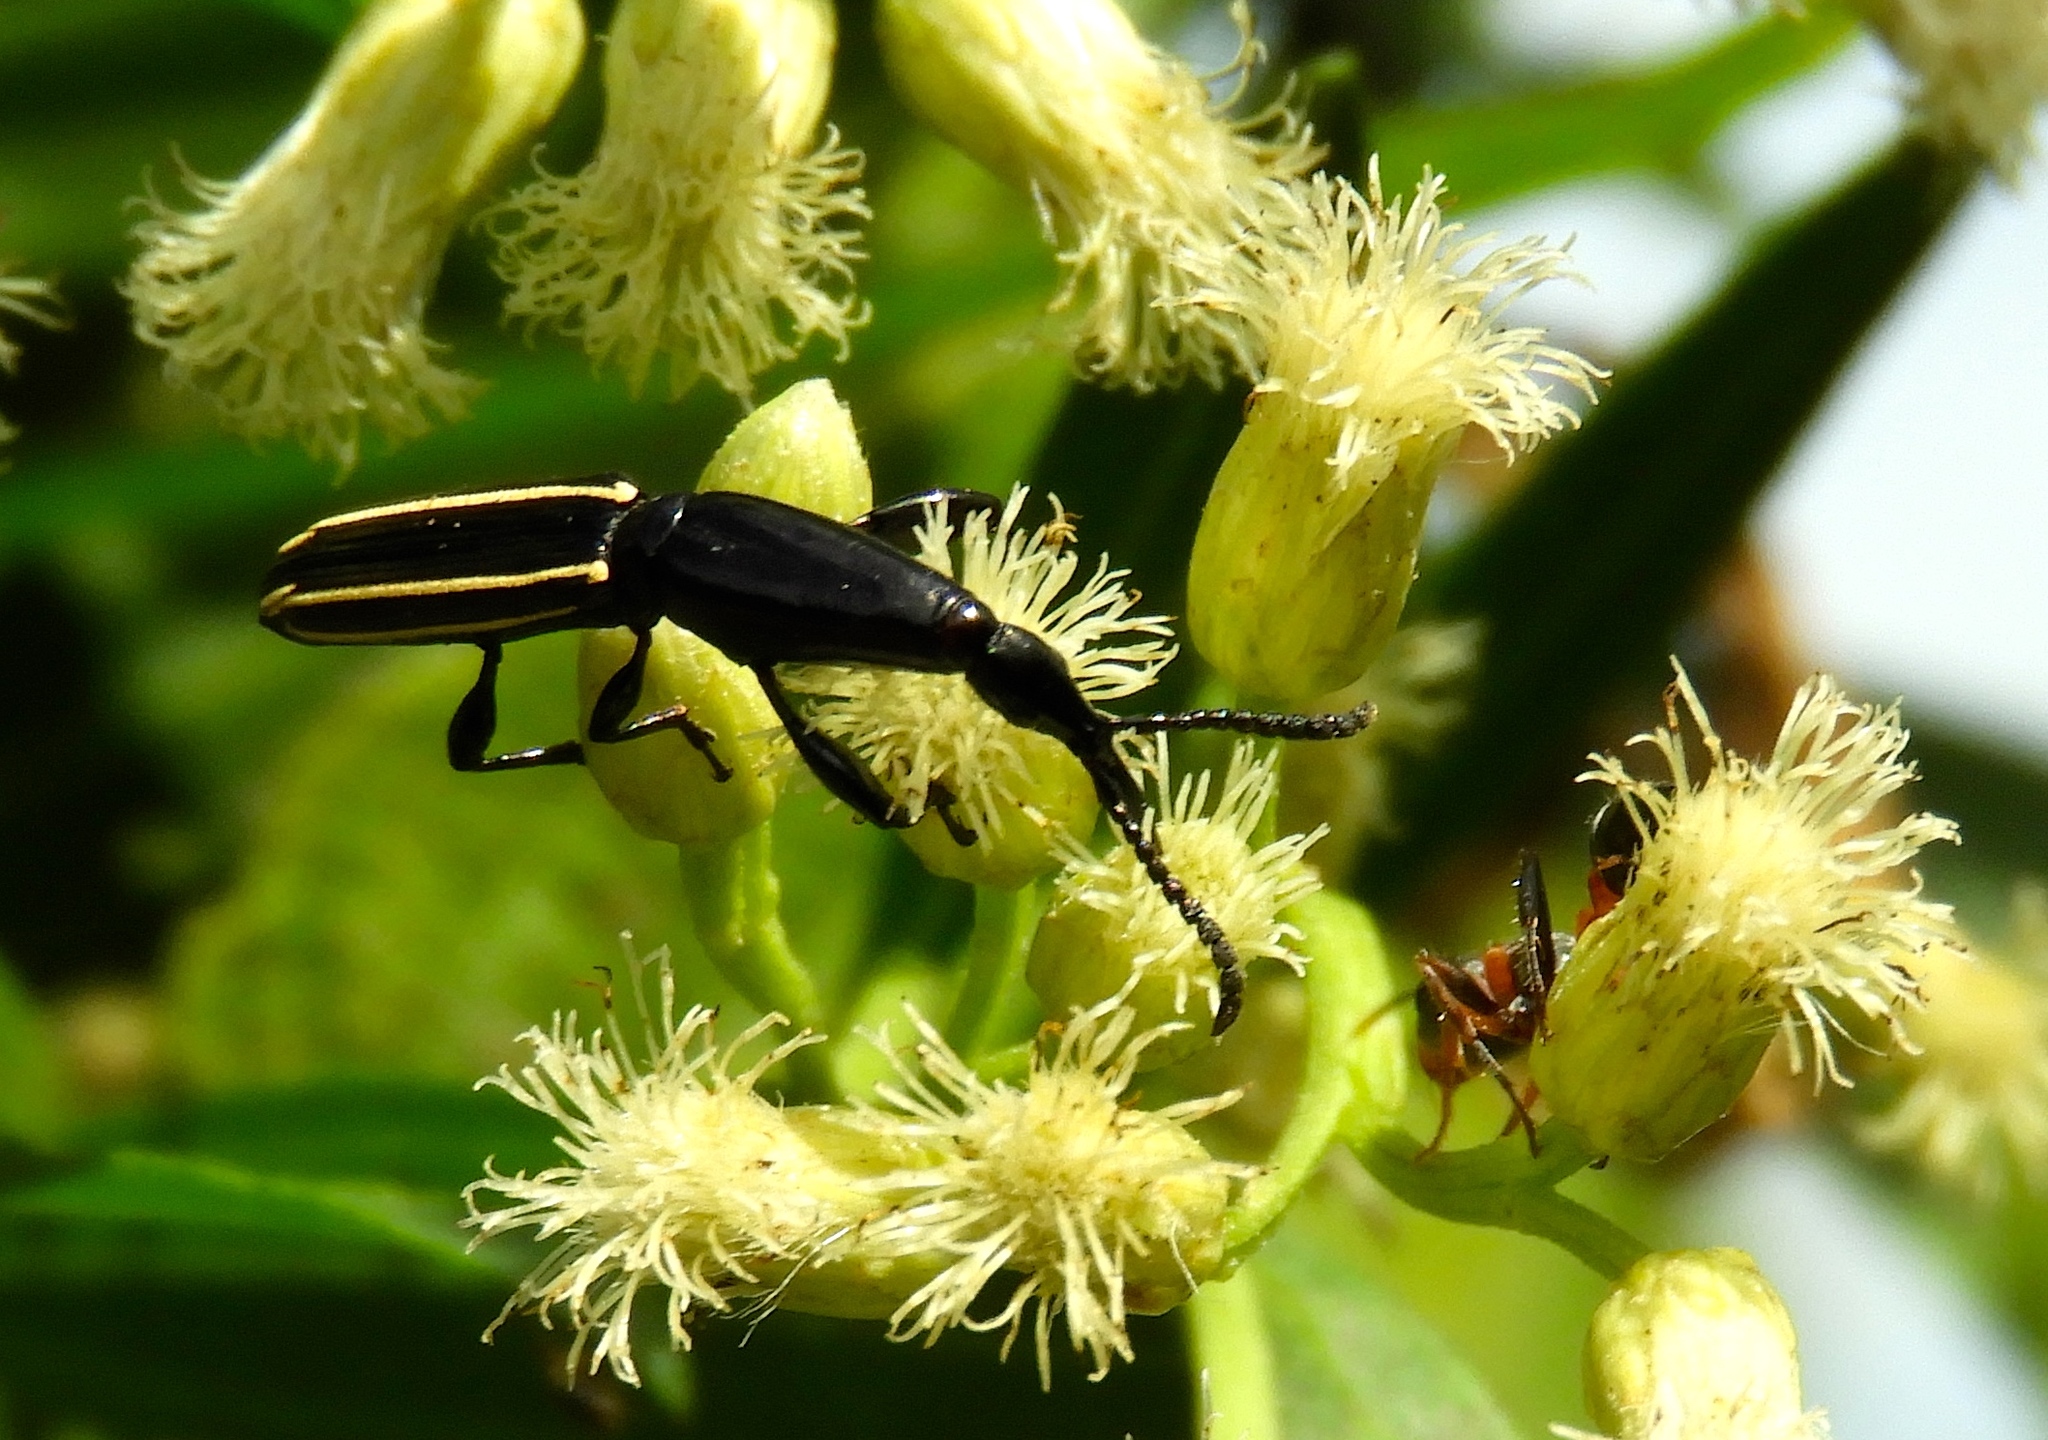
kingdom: Animalia
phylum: Arthropoda
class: Insecta
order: Coleoptera
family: Brentidae
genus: Brentus
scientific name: Brentus anchorago
